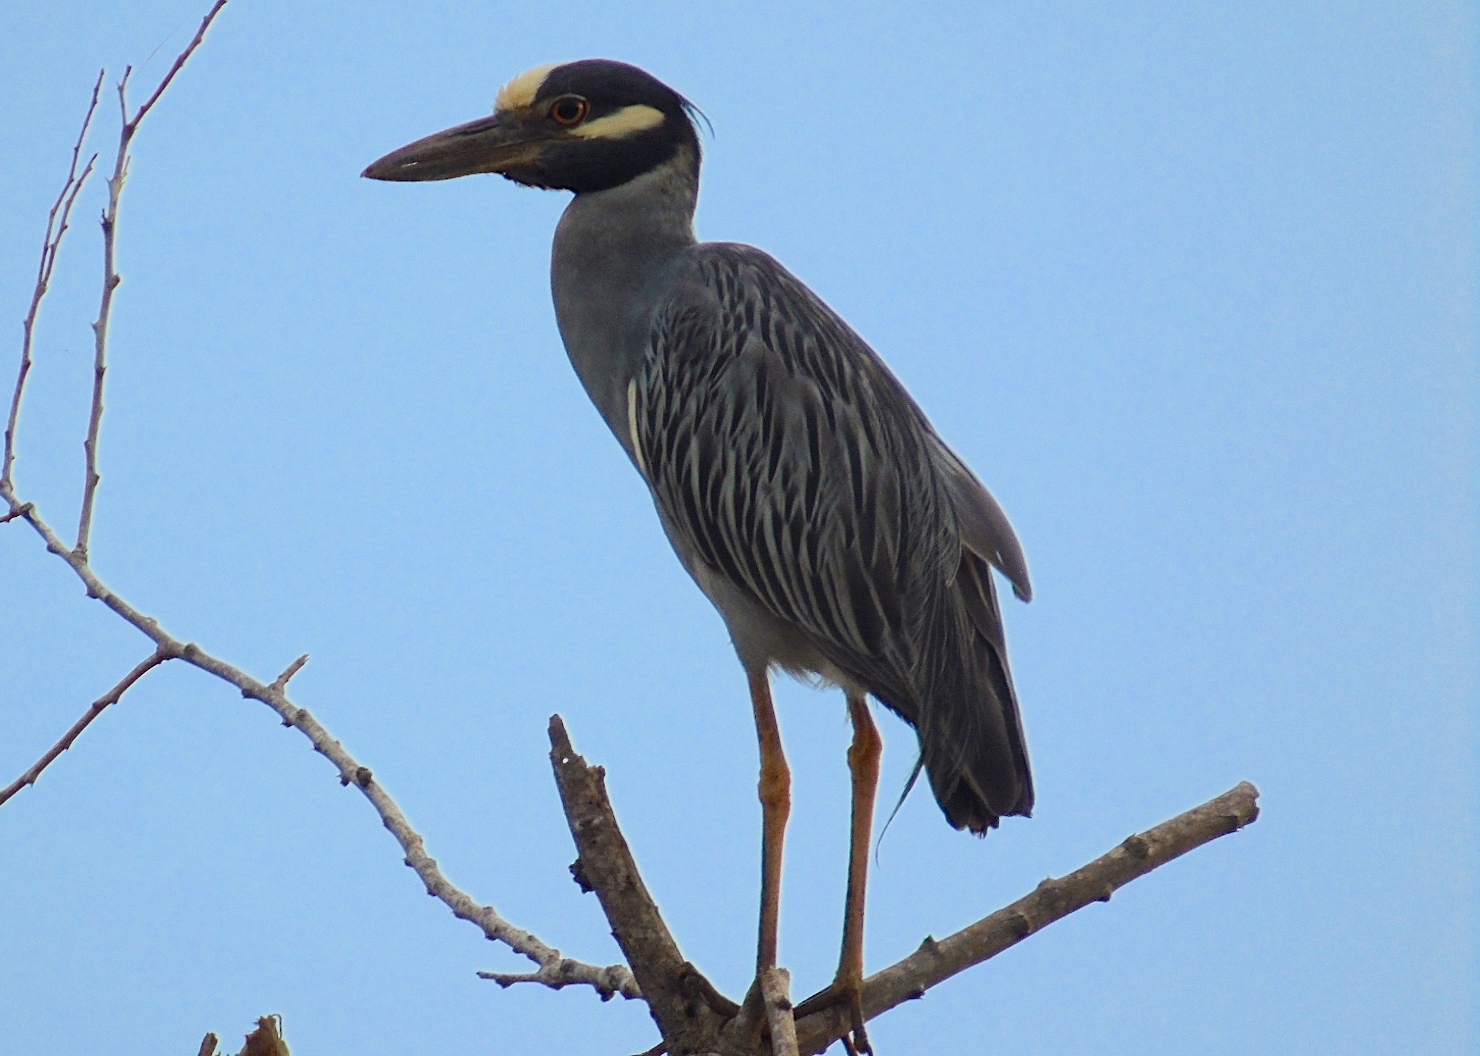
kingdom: Animalia
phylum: Chordata
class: Aves
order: Pelecaniformes
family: Ardeidae
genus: Nyctanassa
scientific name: Nyctanassa violacea
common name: Yellow-crowned night heron
